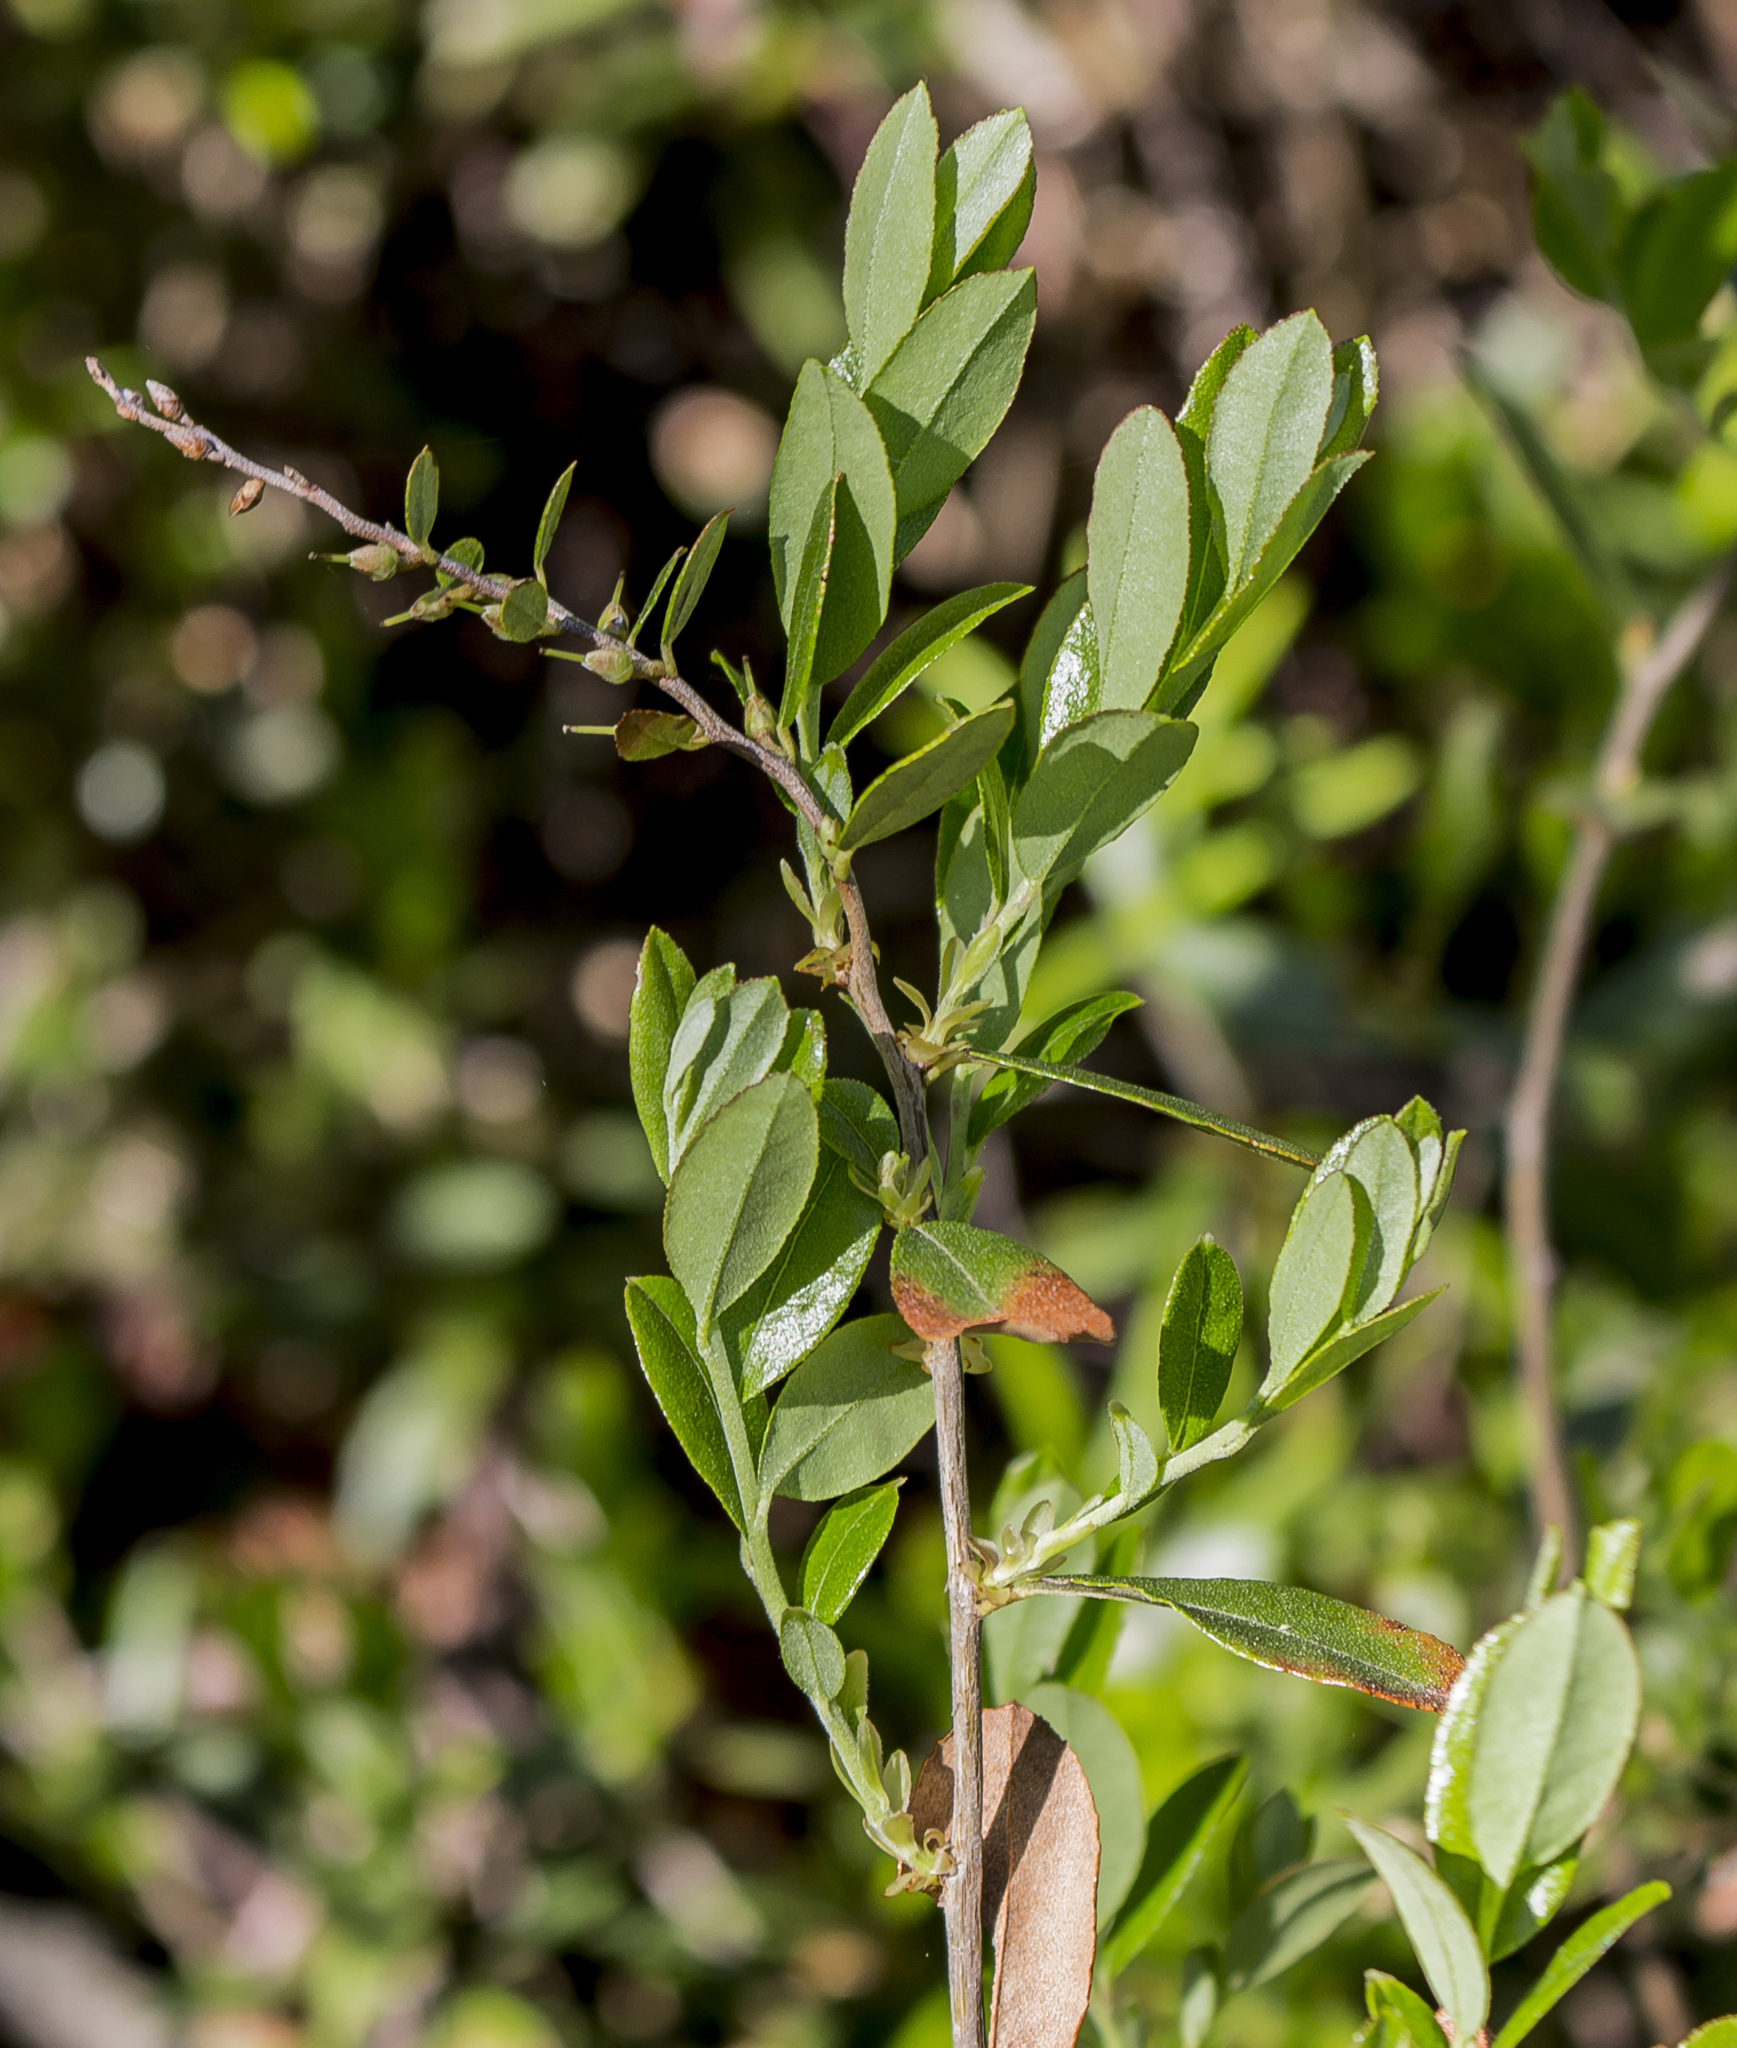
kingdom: Plantae
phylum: Tracheophyta
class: Magnoliopsida
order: Ericales
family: Ericaceae
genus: Chamaedaphne
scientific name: Chamaedaphne calyculata
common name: Leatherleaf
